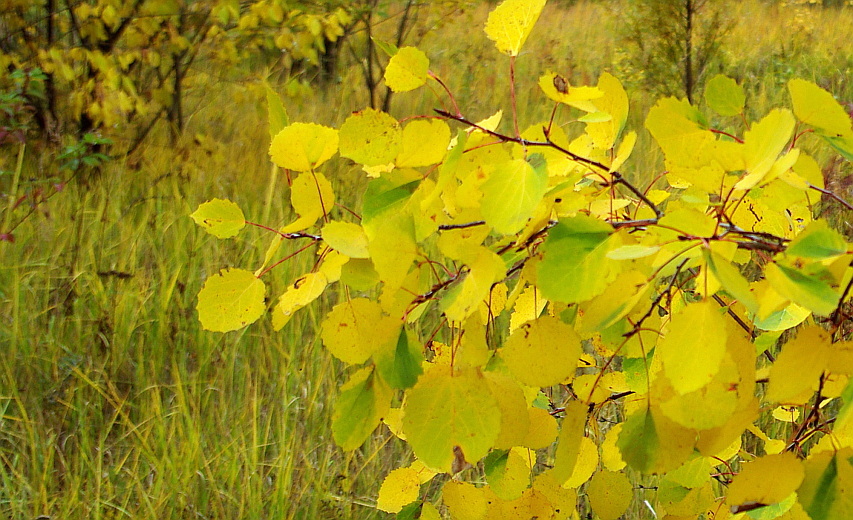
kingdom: Plantae
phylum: Tracheophyta
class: Magnoliopsida
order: Malpighiales
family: Salicaceae
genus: Populus
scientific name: Populus tremula
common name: European aspen
